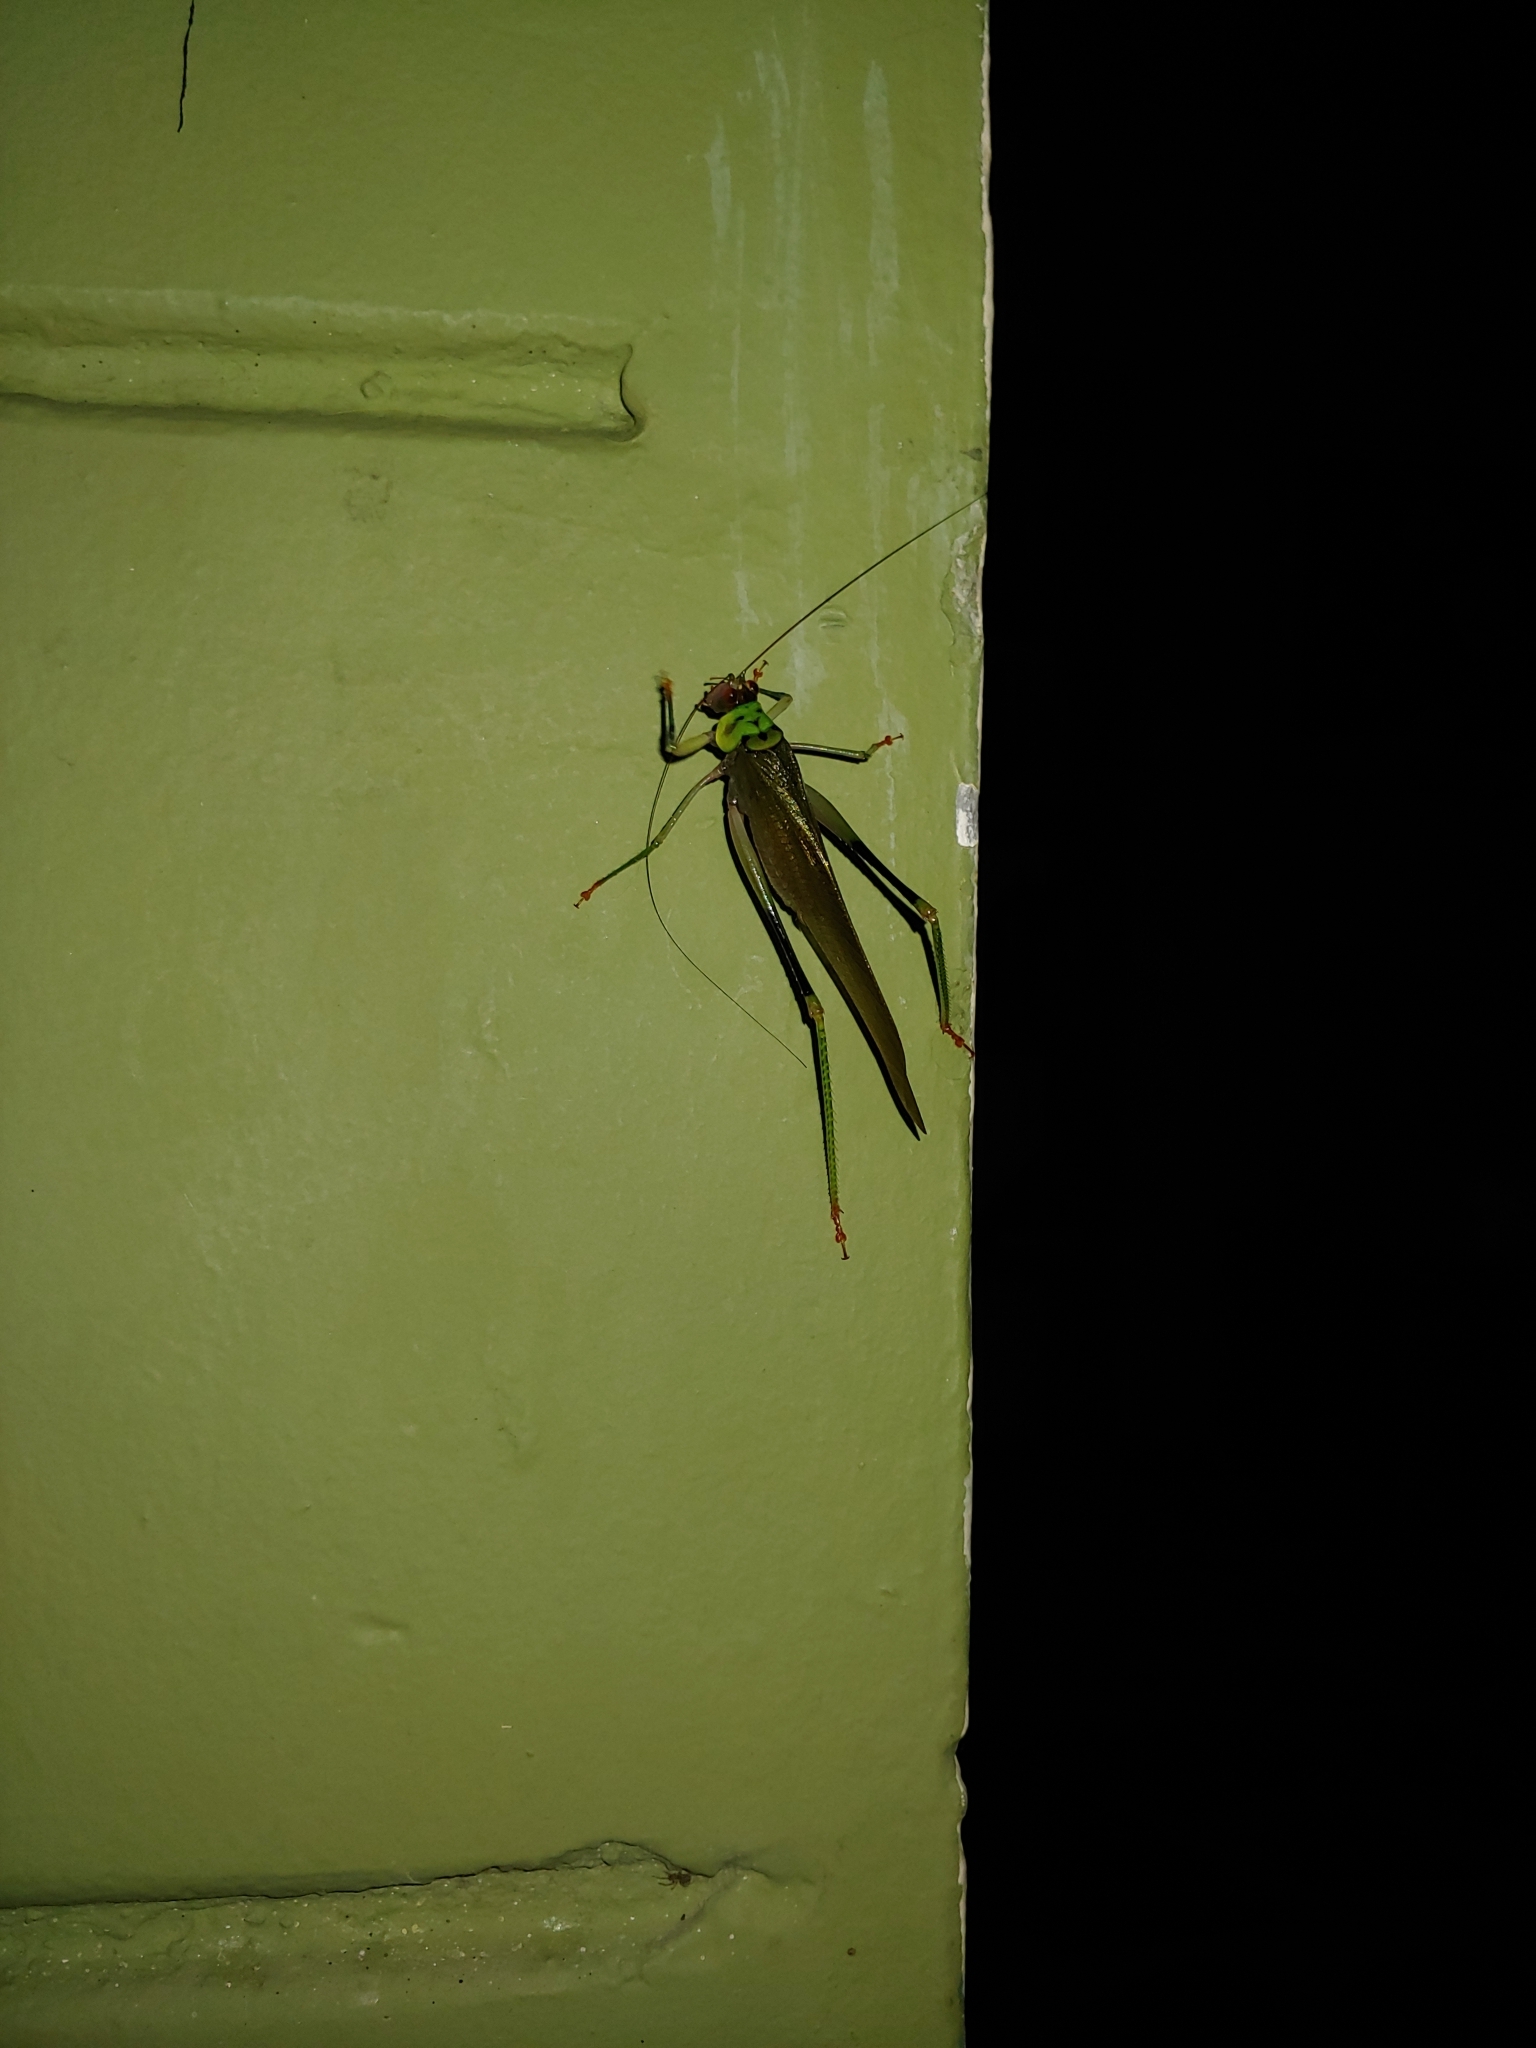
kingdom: Animalia
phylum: Arthropoda
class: Insecta
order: Orthoptera
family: Tettigoniidae
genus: Euceraia
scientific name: Euceraia insignis
